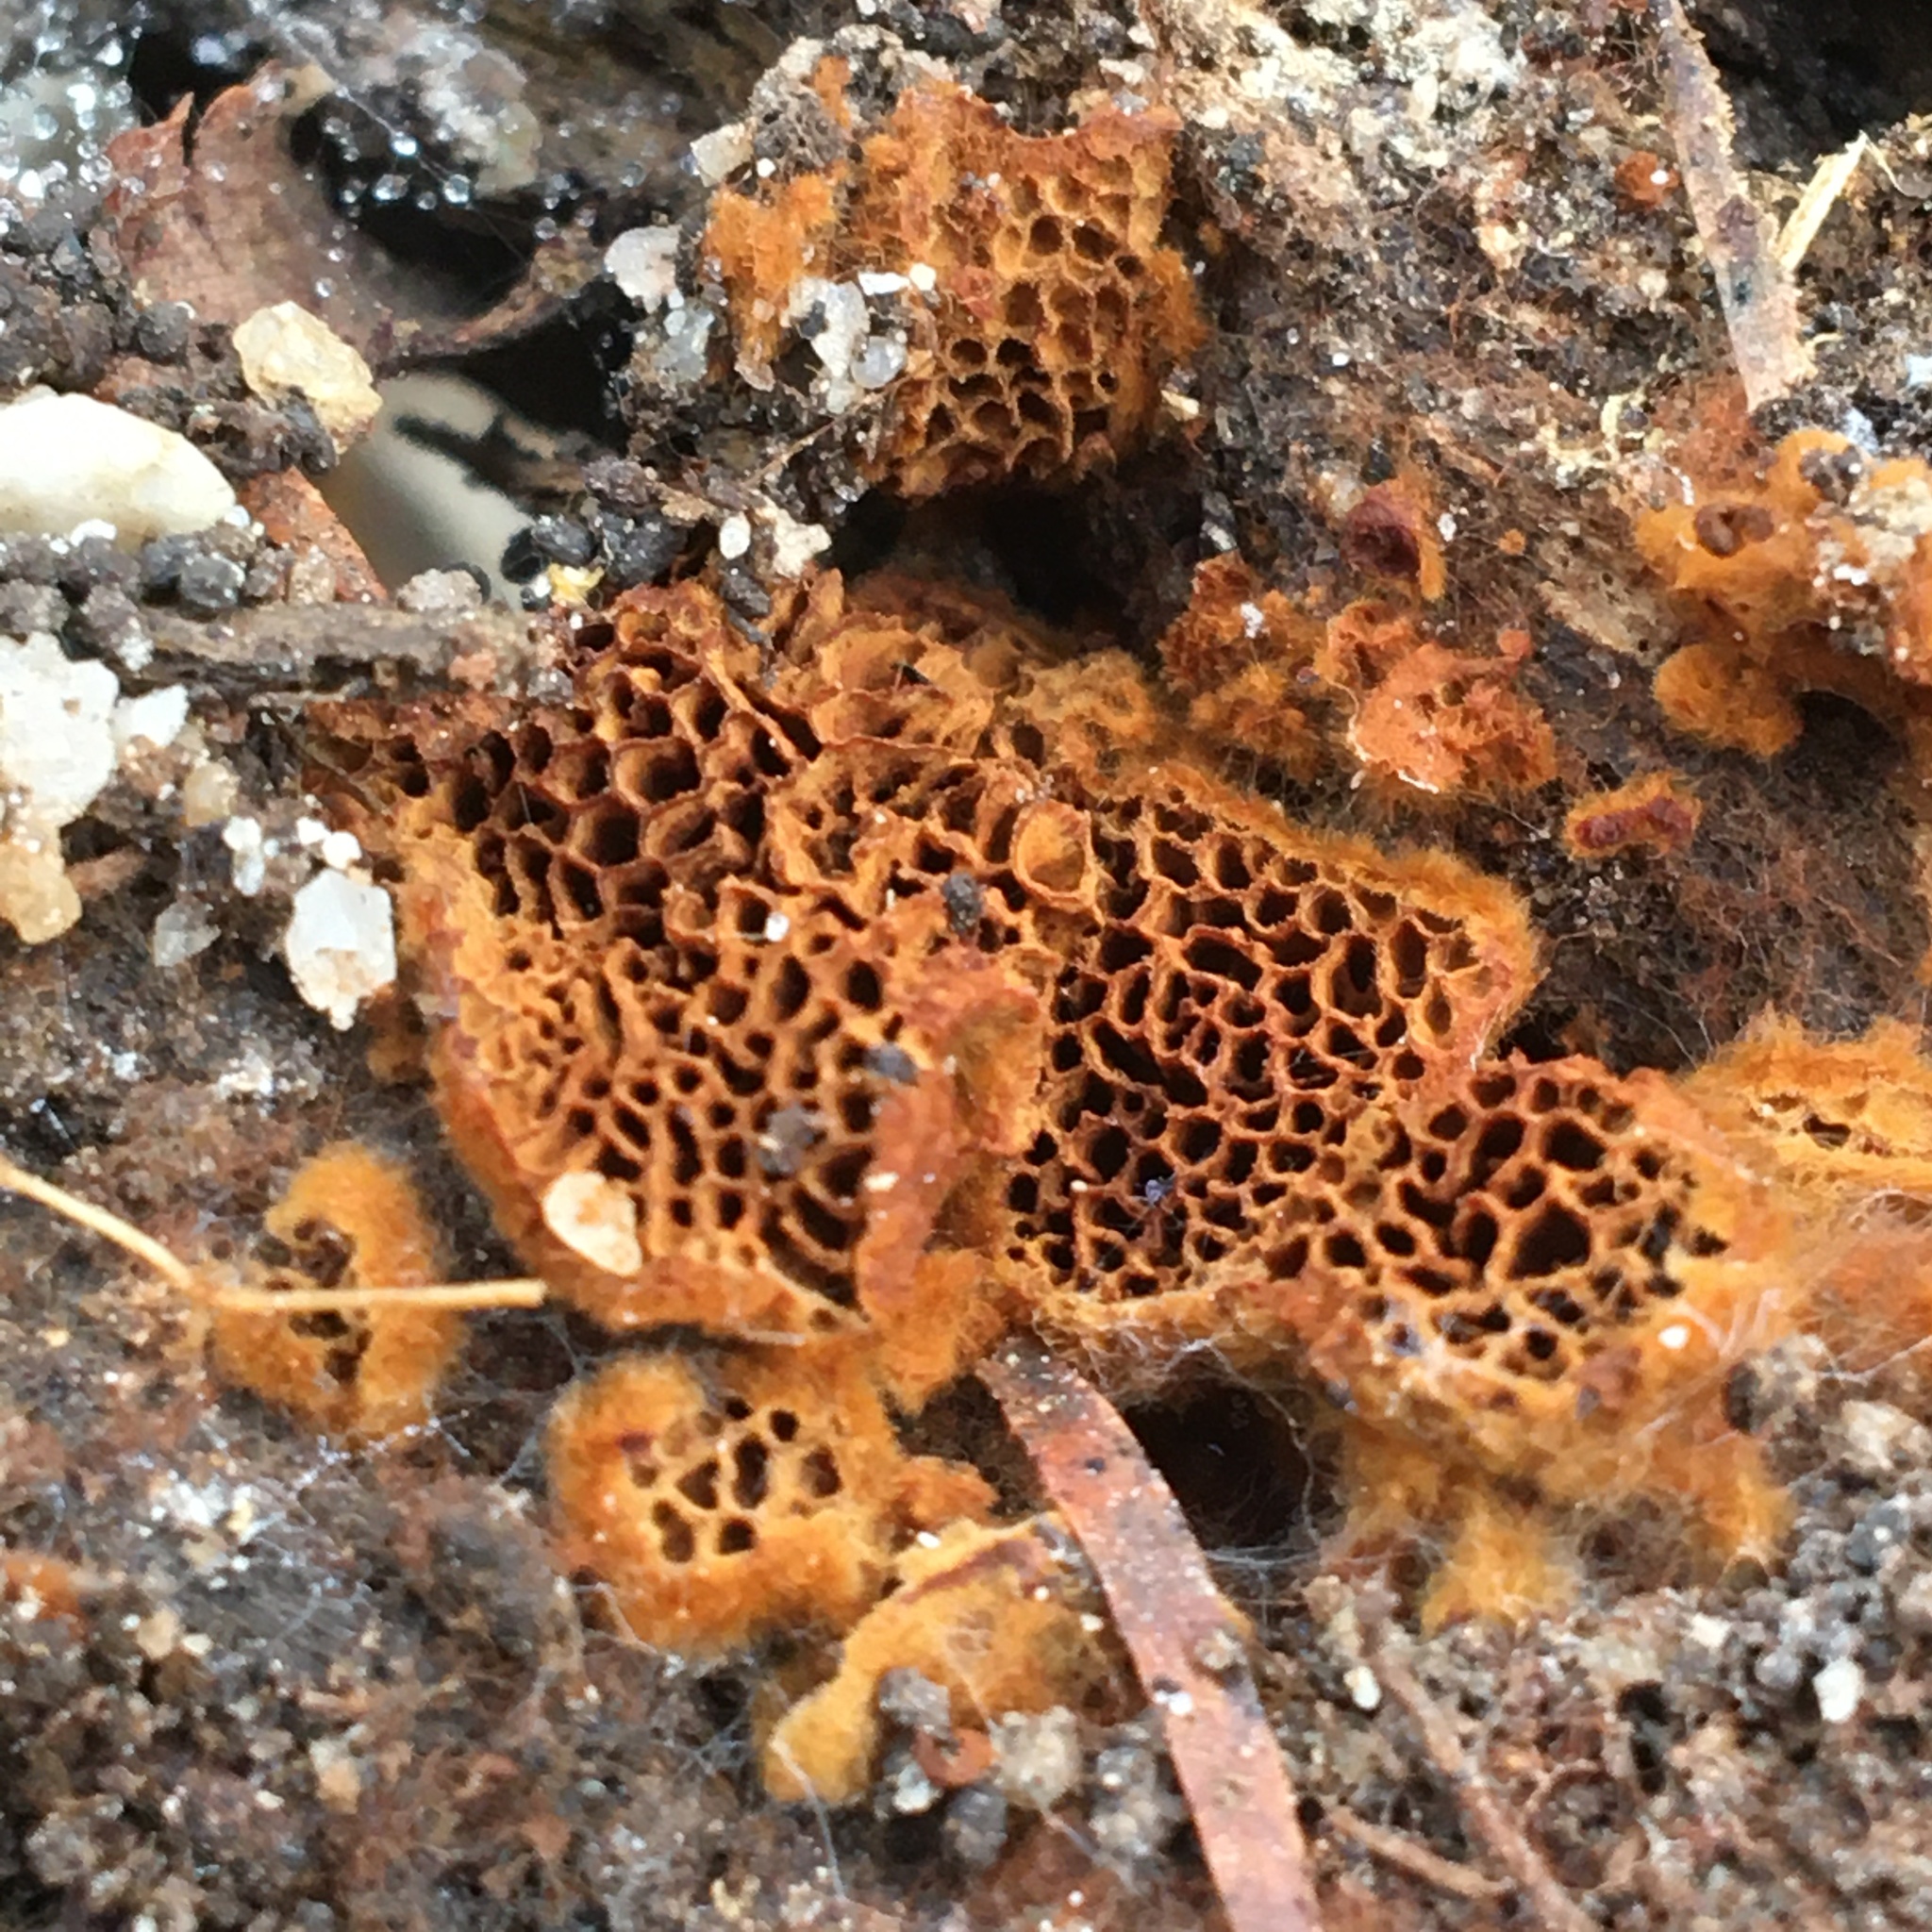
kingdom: Fungi
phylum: Basidiomycota
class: Agaricomycetes
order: Hymenochaetales
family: Hymenochaetaceae
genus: Coltriciella
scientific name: Coltriciella dependens
